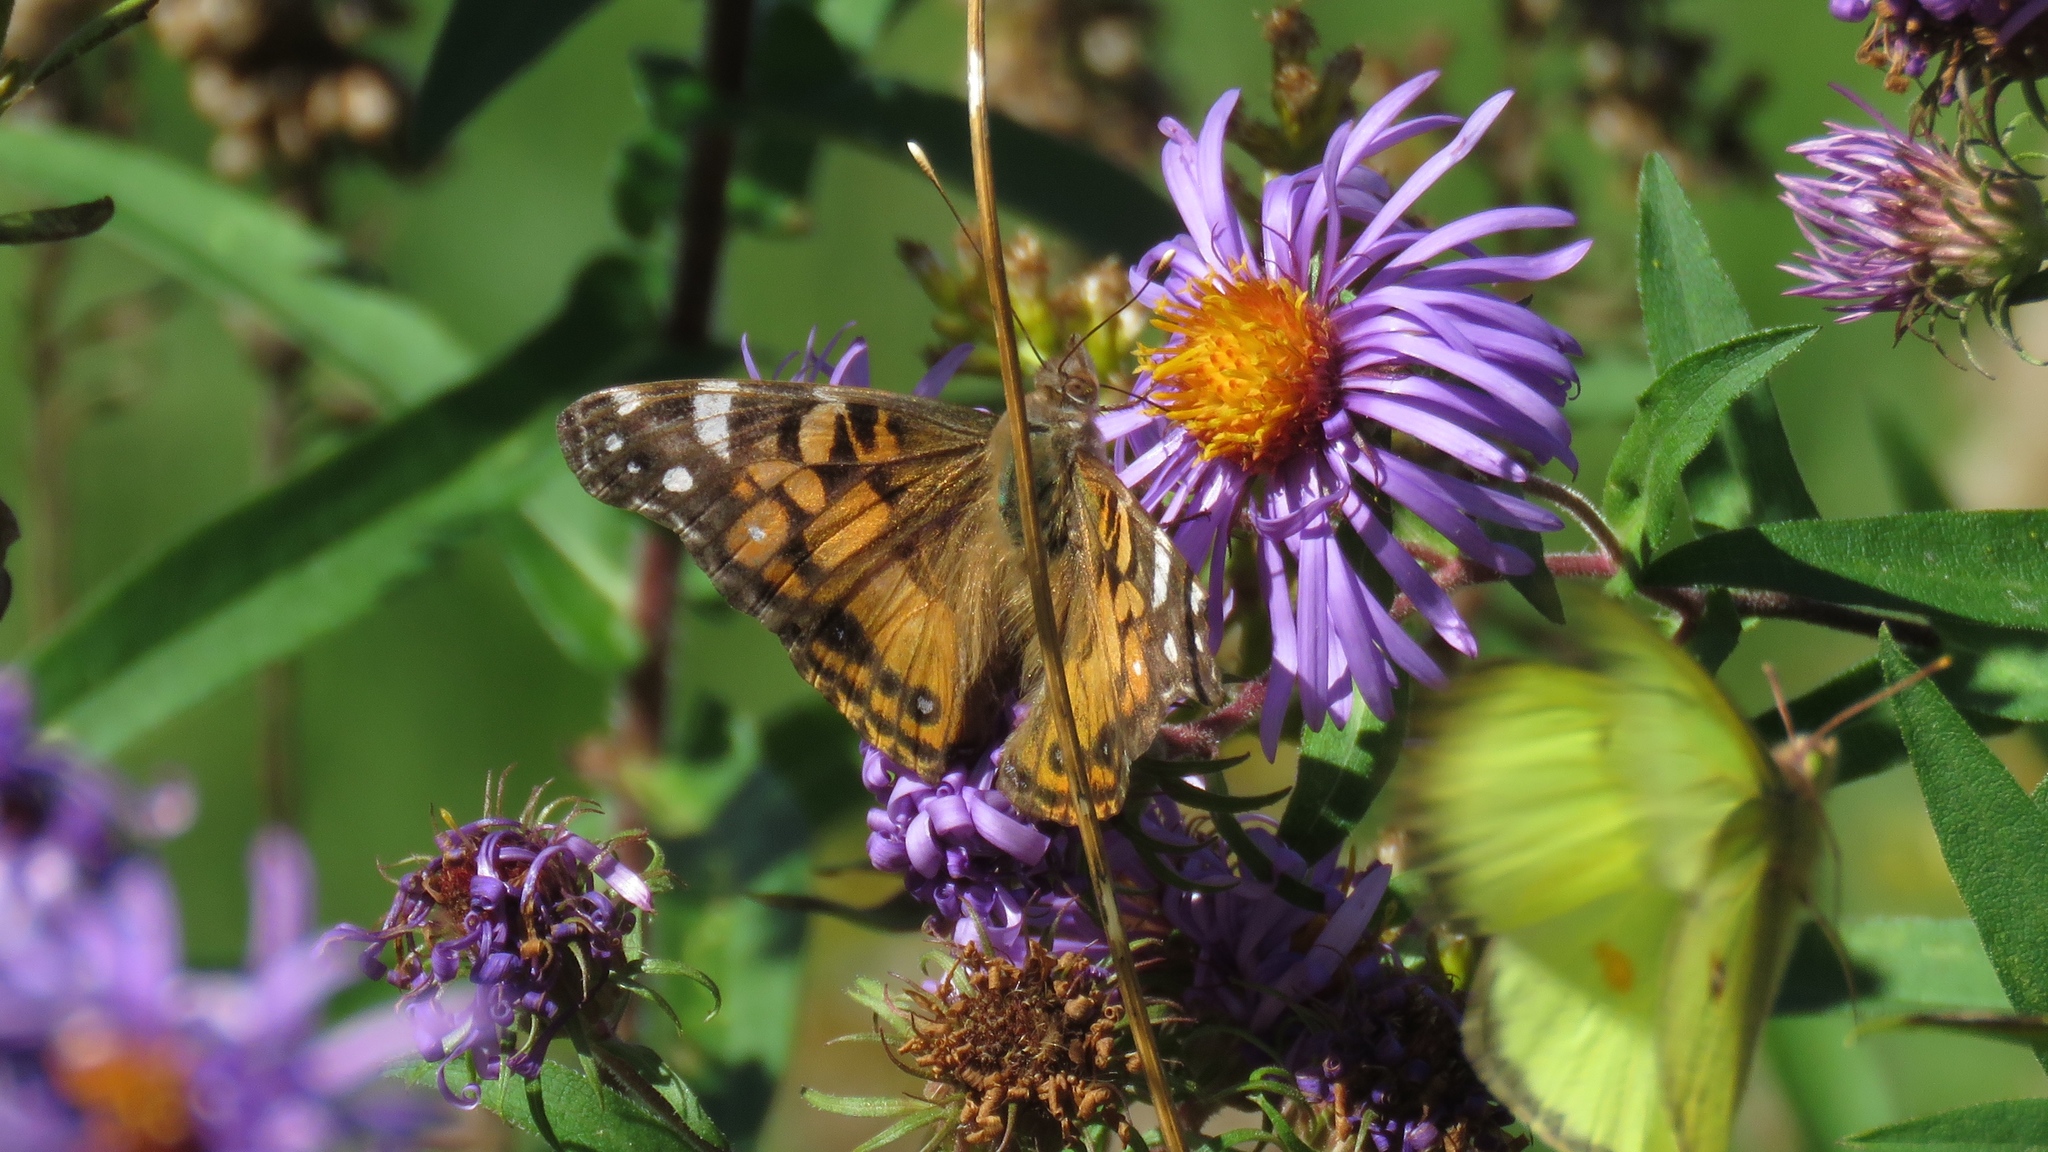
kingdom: Animalia
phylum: Arthropoda
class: Insecta
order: Lepidoptera
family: Nymphalidae
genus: Vanessa
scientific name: Vanessa virginiensis
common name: American lady
